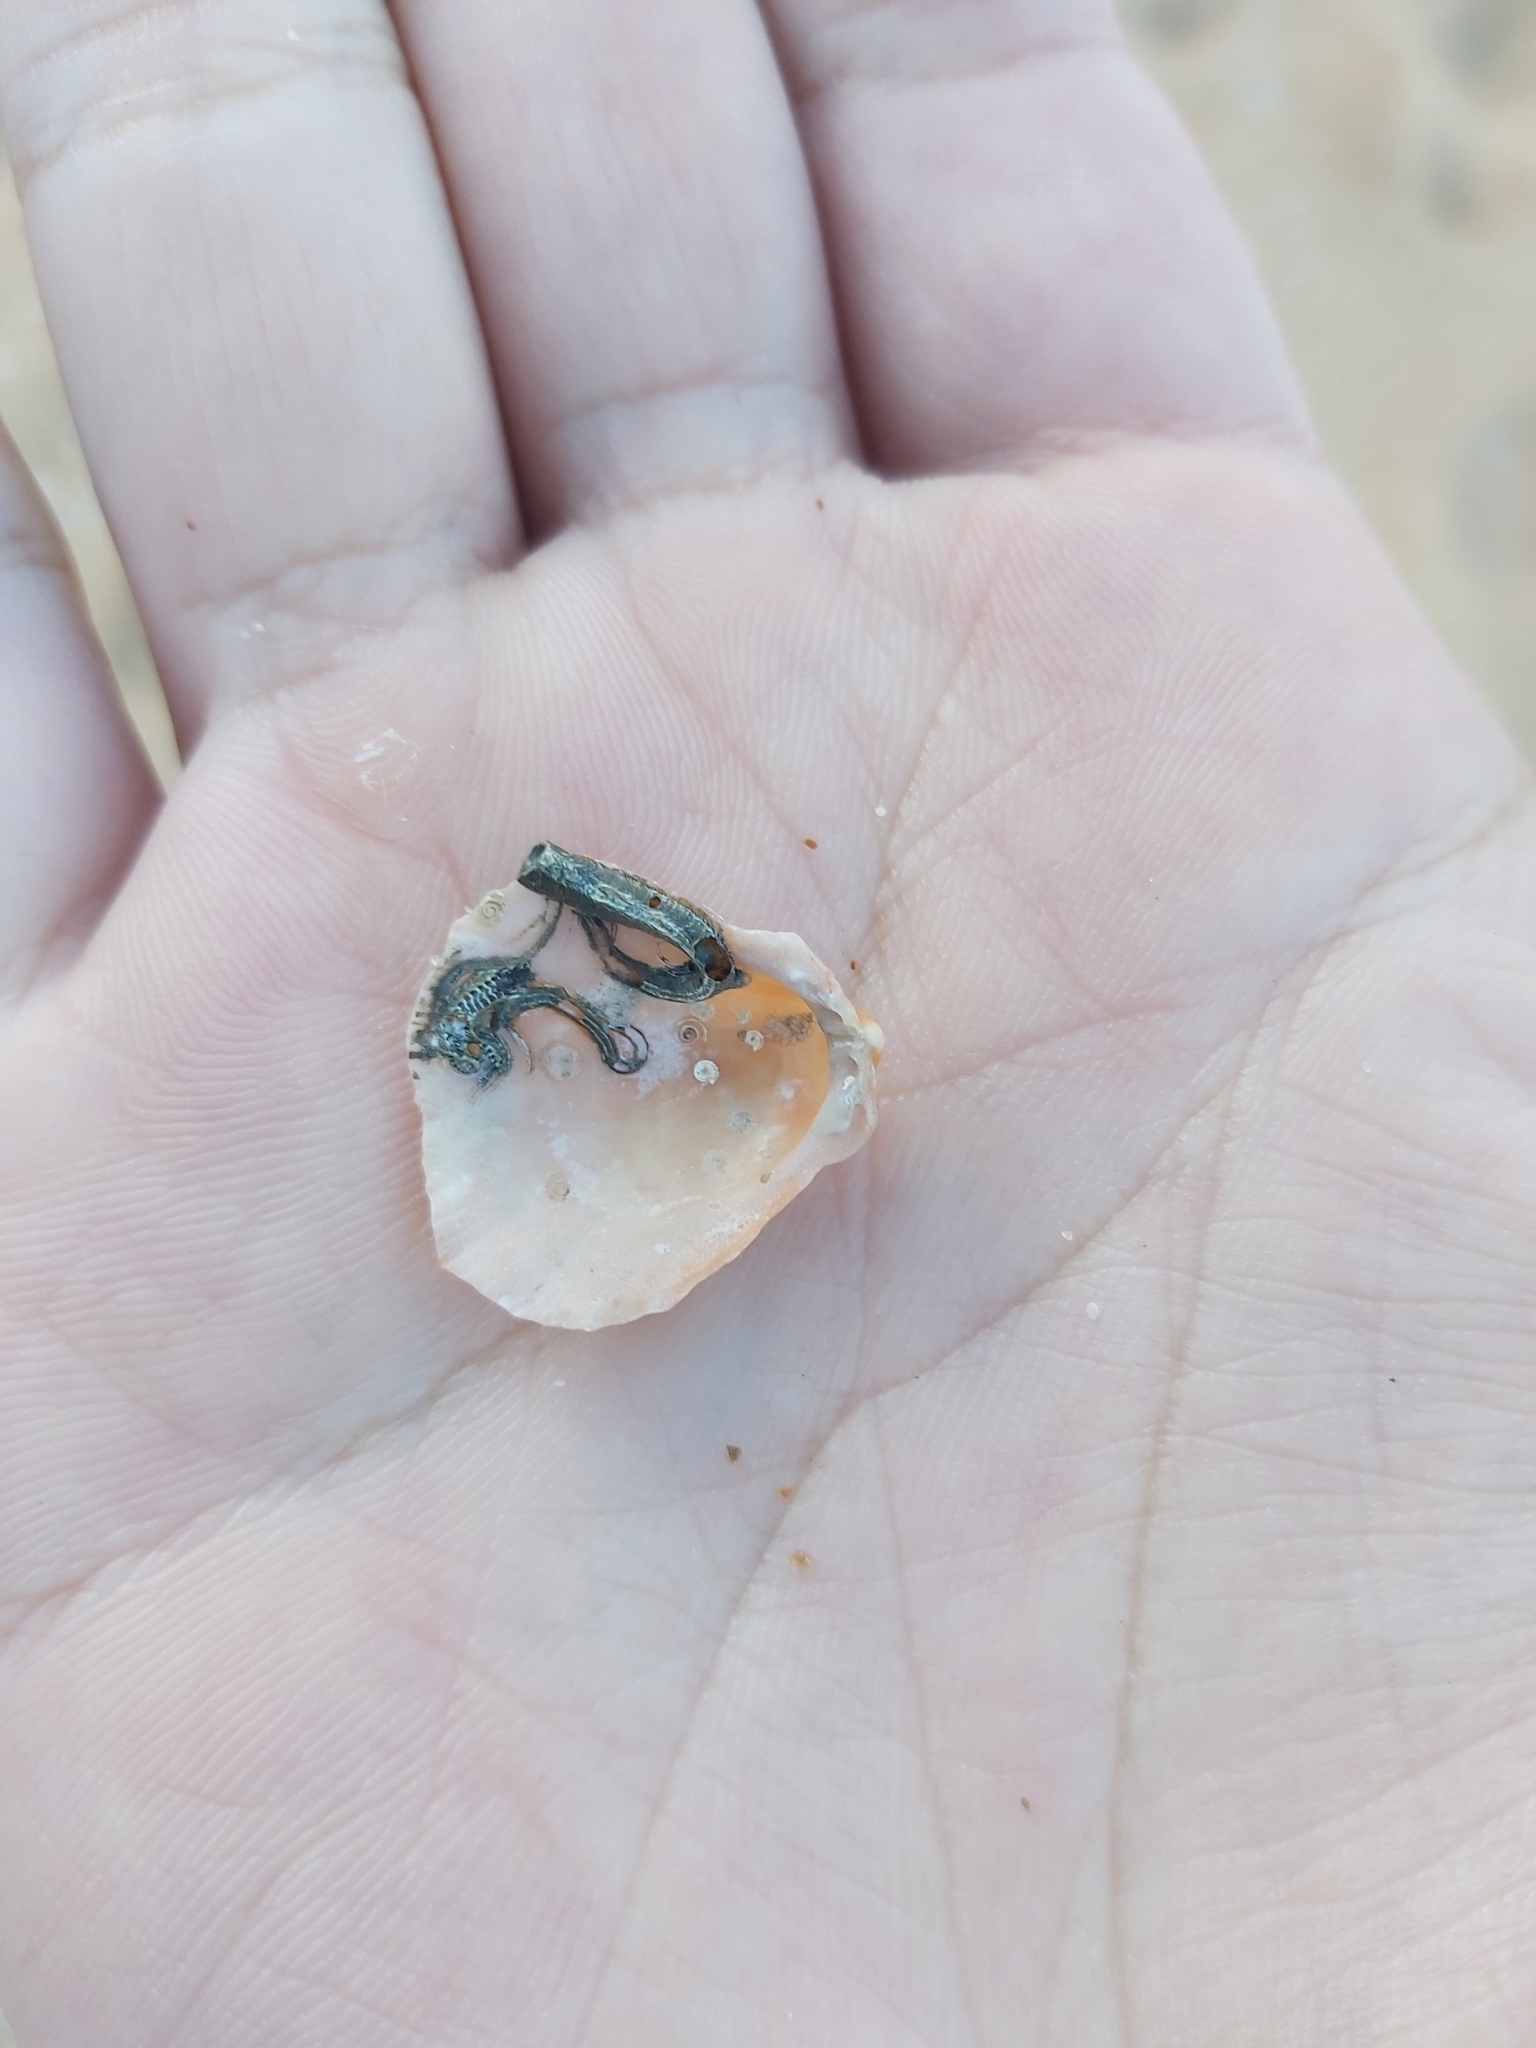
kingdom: Animalia
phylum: Mollusca
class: Bivalvia
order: Pectinida
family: Spondylidae
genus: Spondylus
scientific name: Spondylus tenellus
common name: Scarlet thorny oyster
